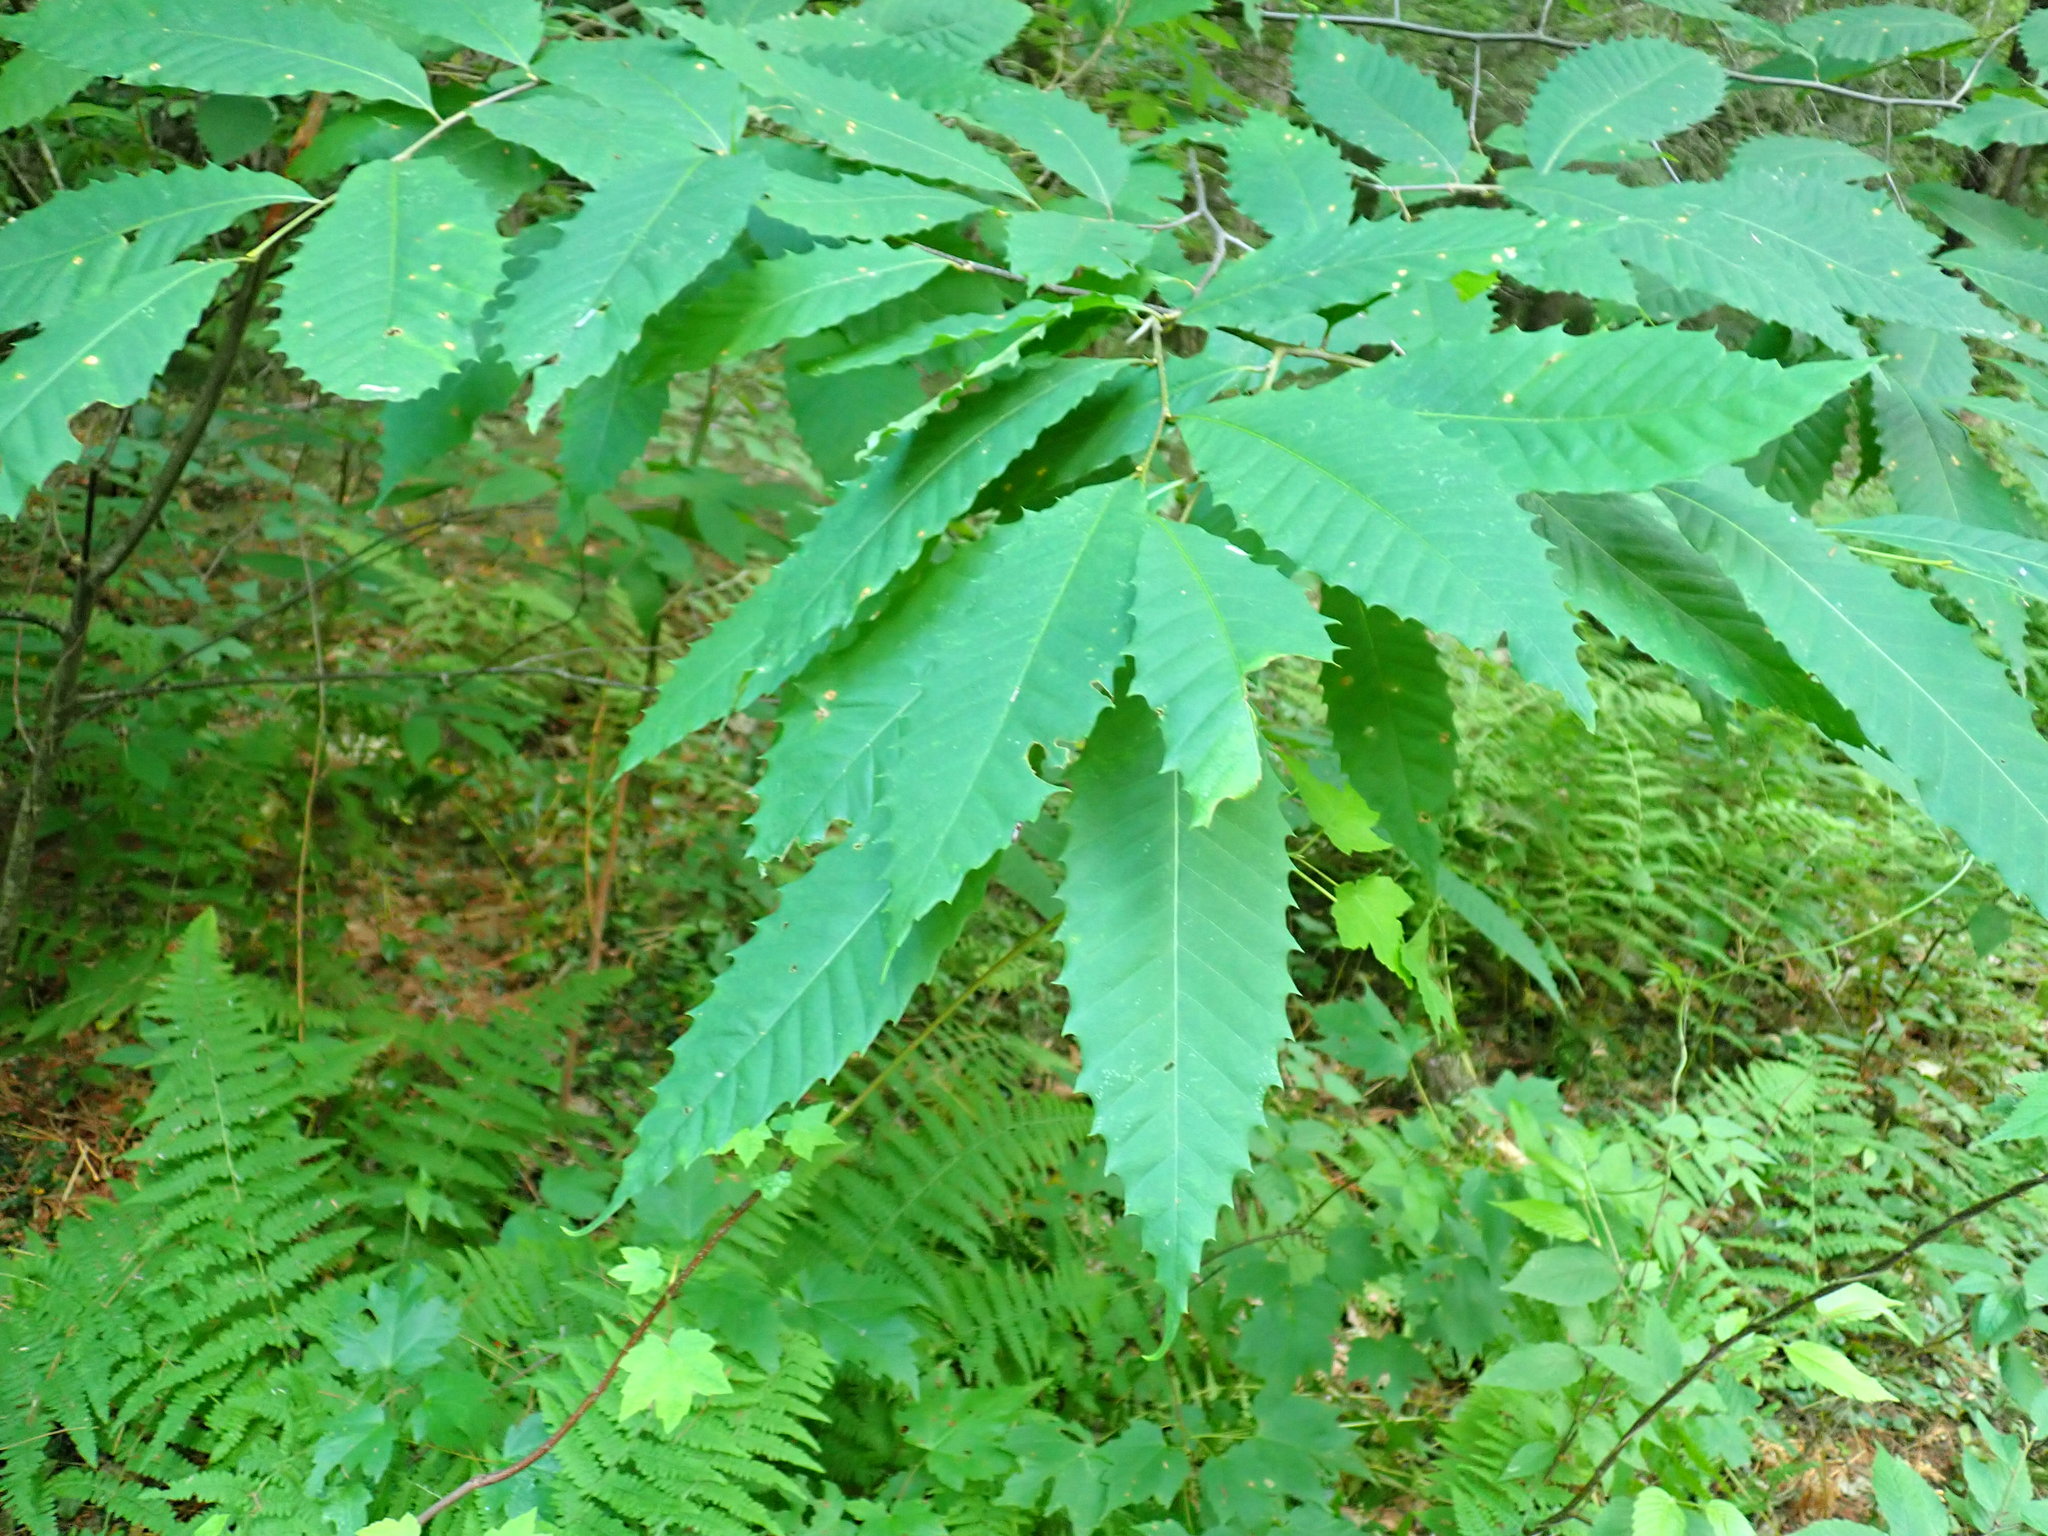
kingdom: Plantae
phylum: Tracheophyta
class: Magnoliopsida
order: Fagales
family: Fagaceae
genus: Castanea
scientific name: Castanea dentata
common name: American chestnut
